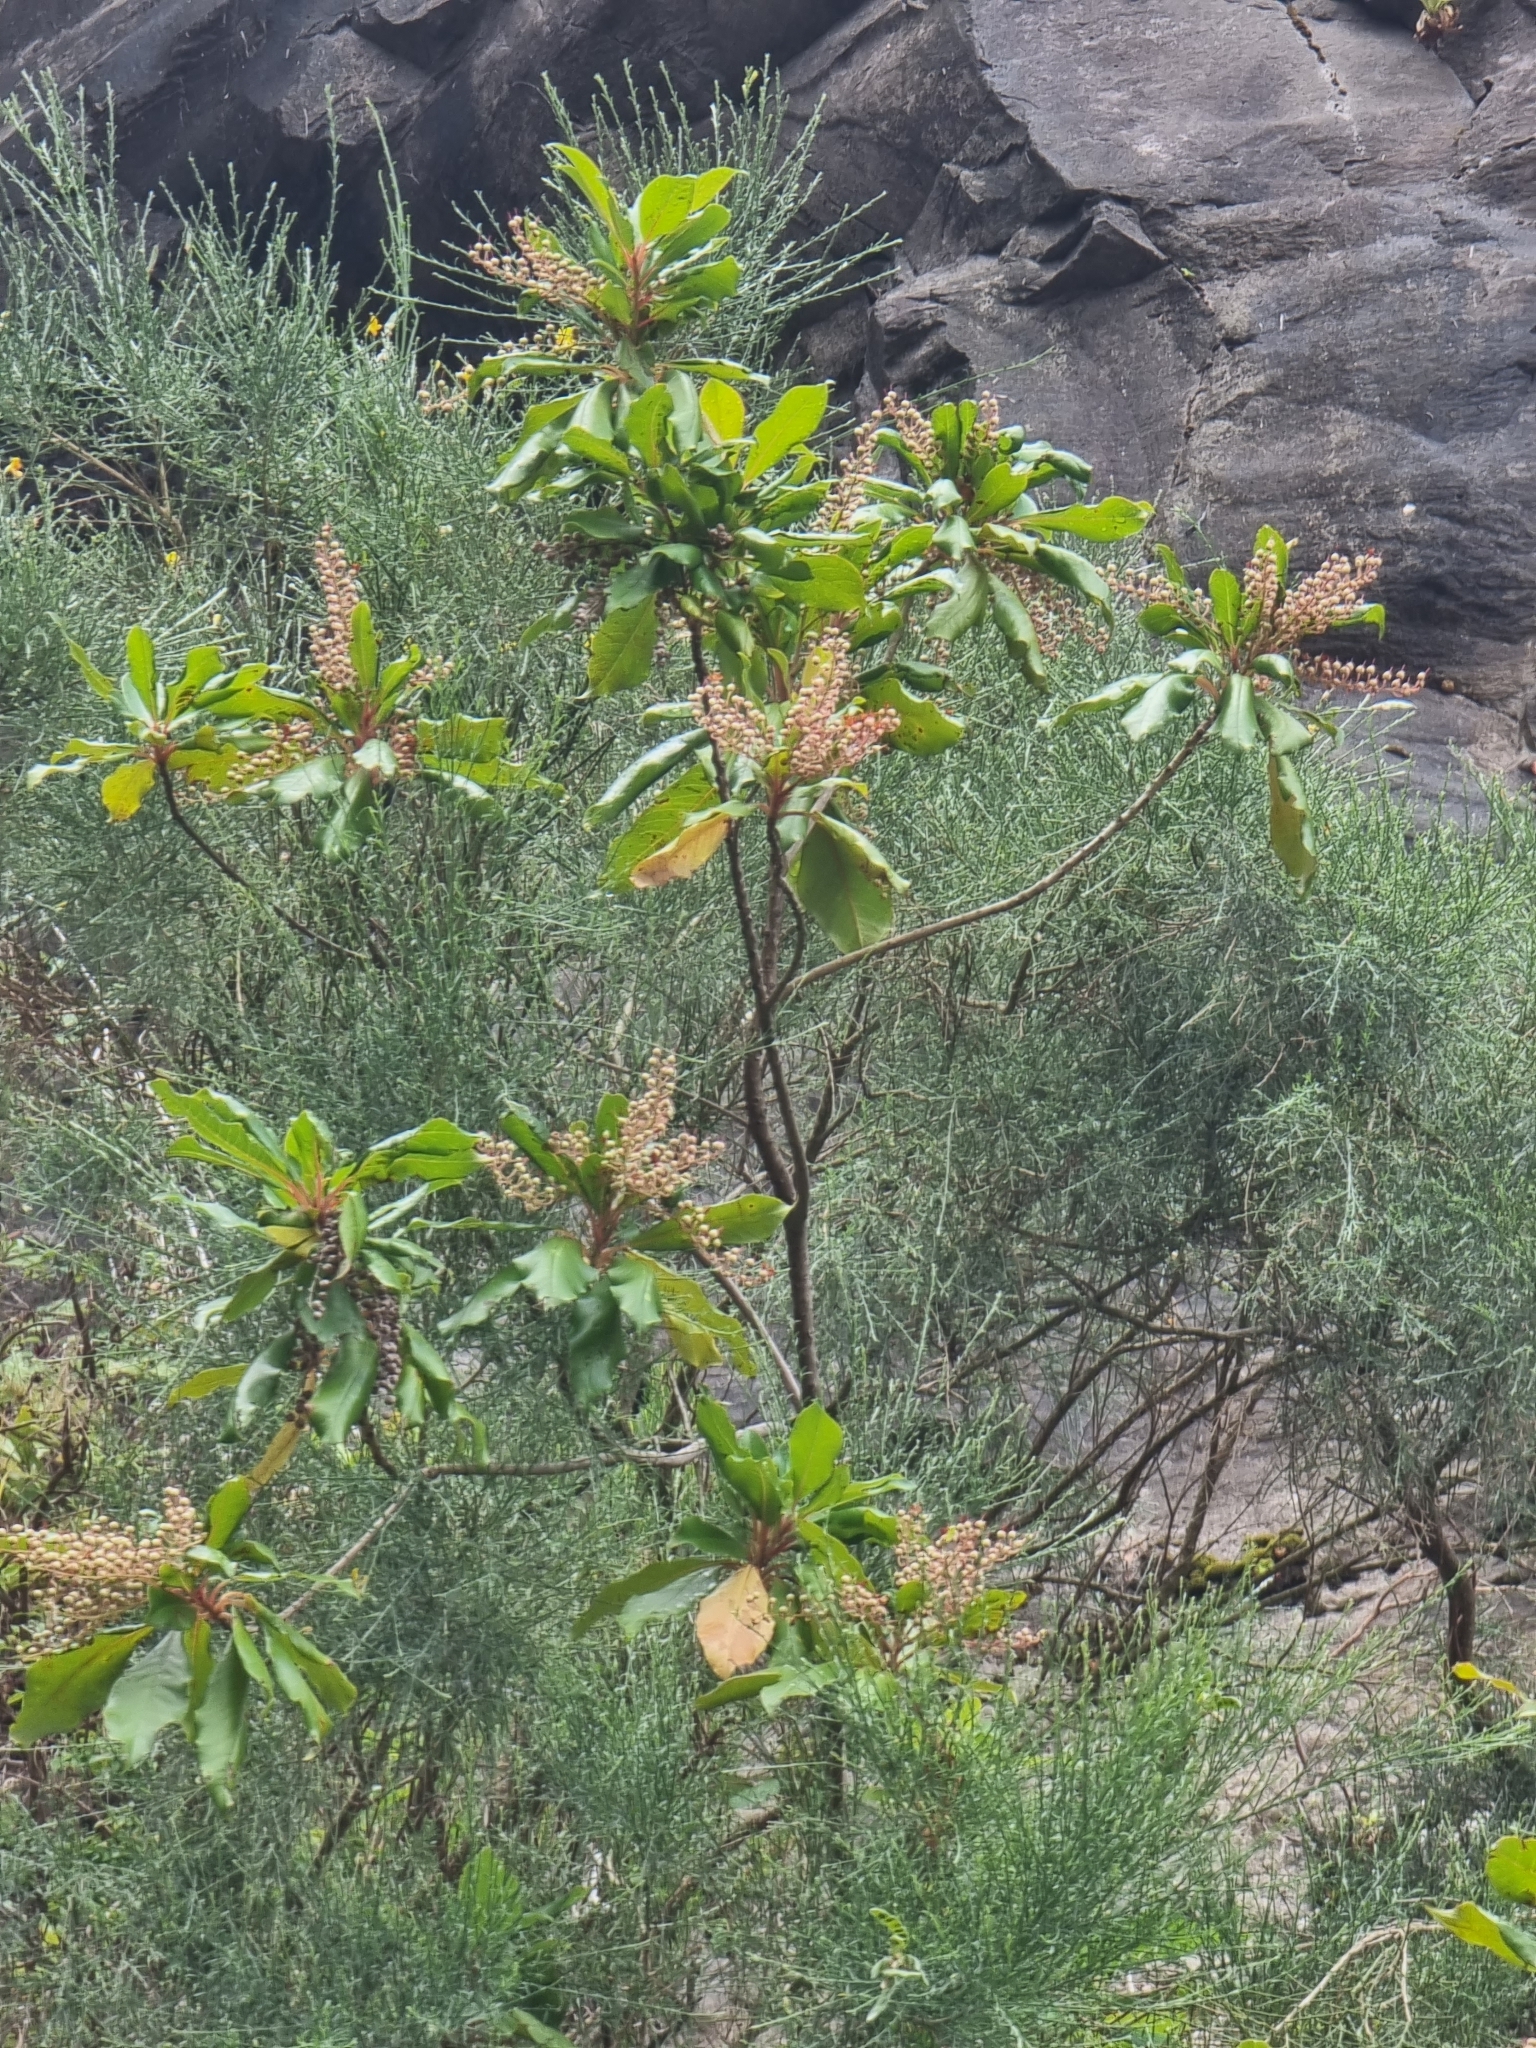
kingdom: Plantae
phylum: Tracheophyta
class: Magnoliopsida
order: Ericales
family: Clethraceae
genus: Clethra
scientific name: Clethra arborea
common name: Lily-of-the-valley-tree
